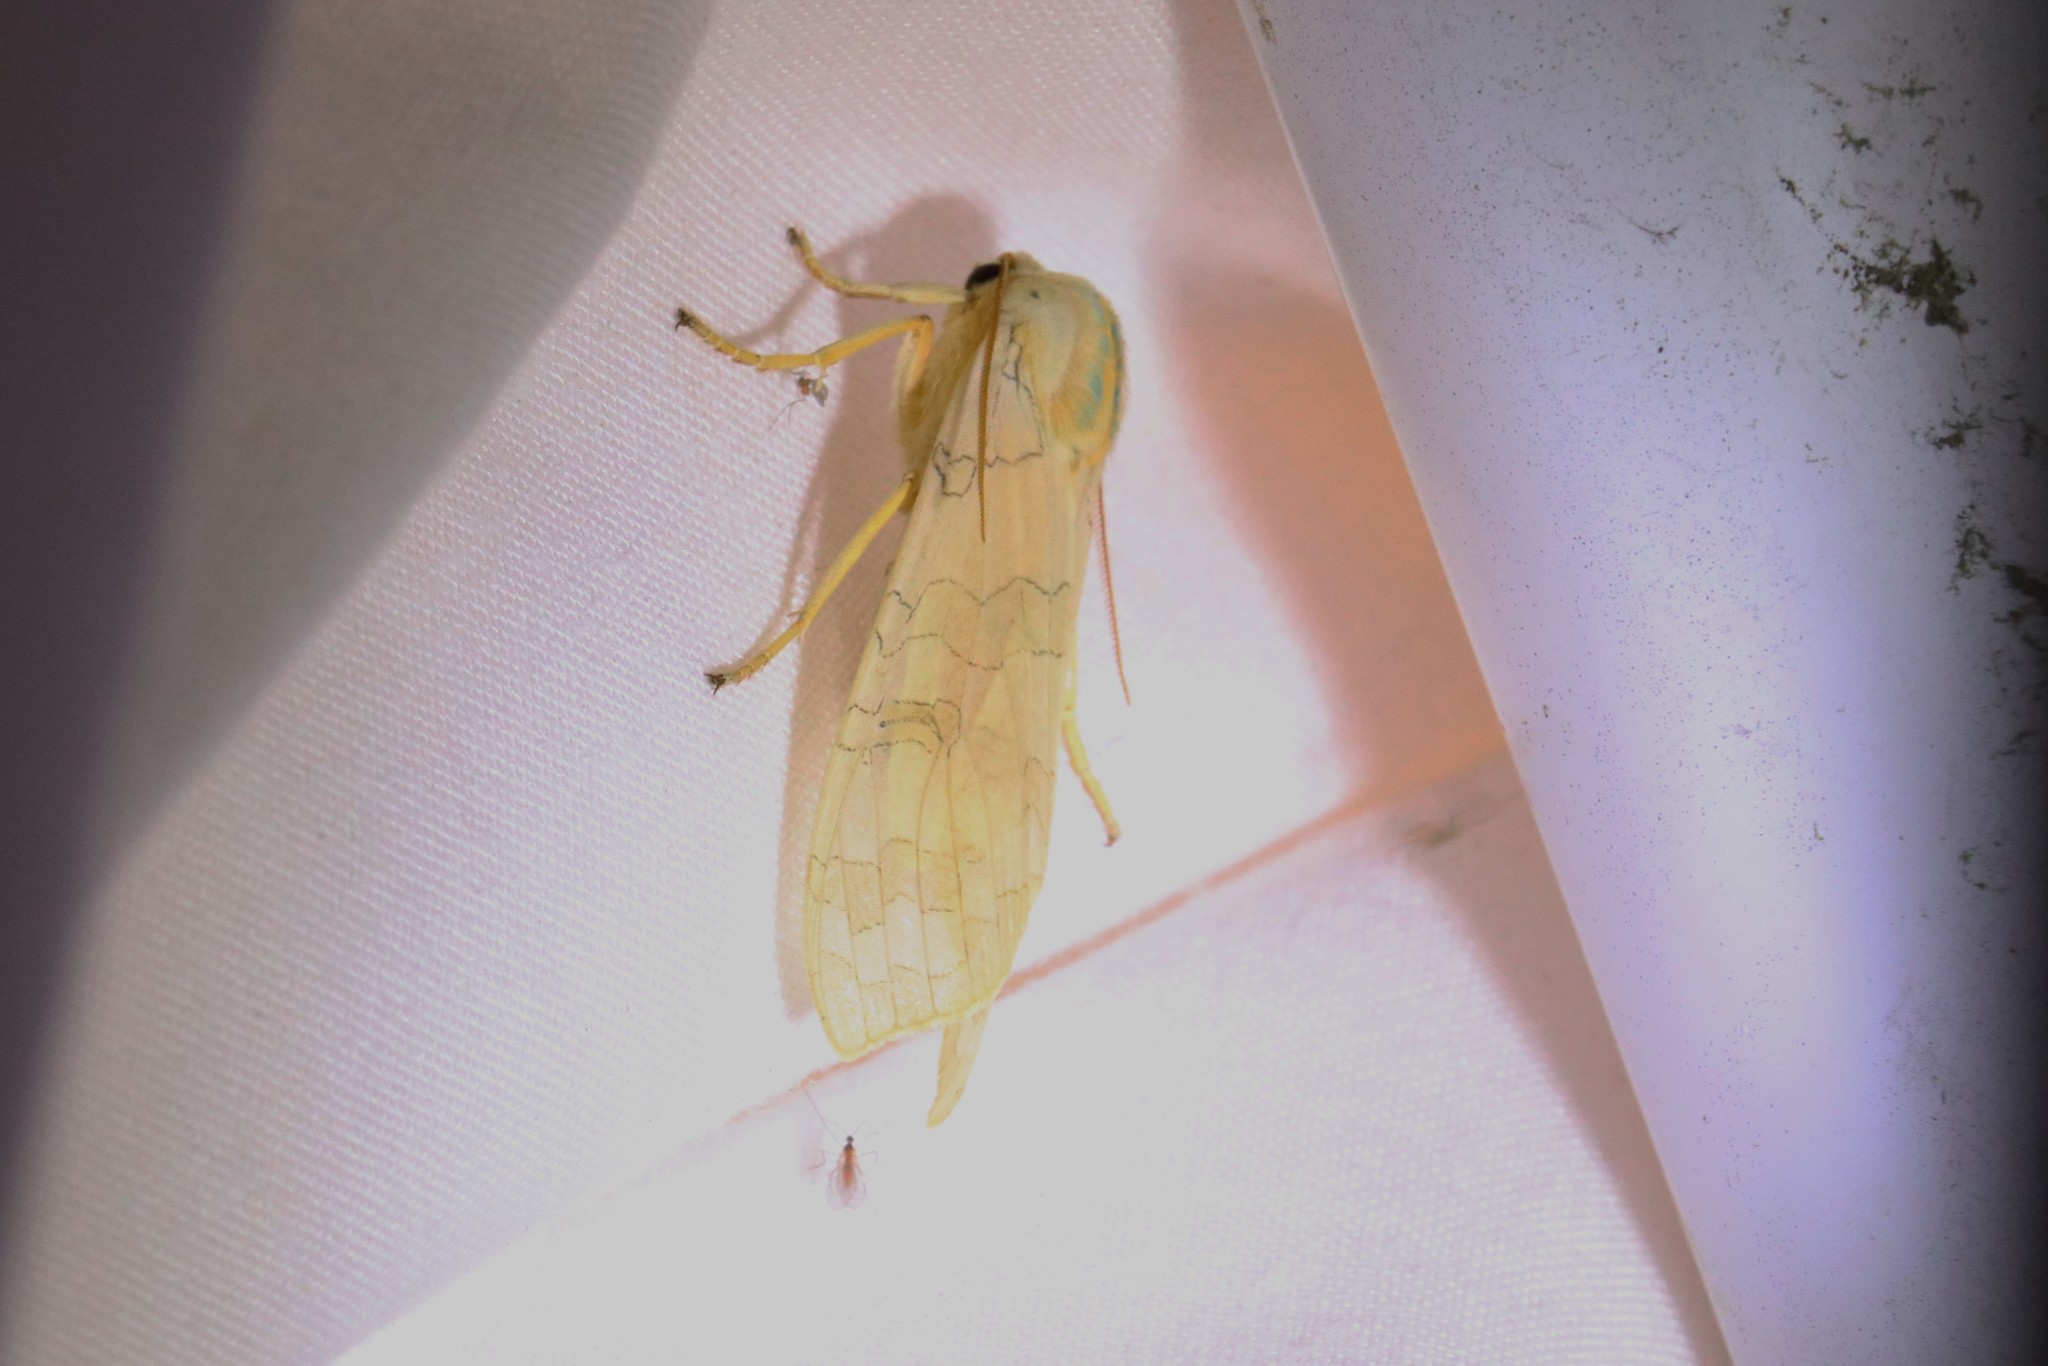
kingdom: Animalia
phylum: Arthropoda
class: Insecta
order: Lepidoptera
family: Erebidae
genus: Halysidota
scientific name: Halysidota tessellaris
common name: Banded tussock moth
